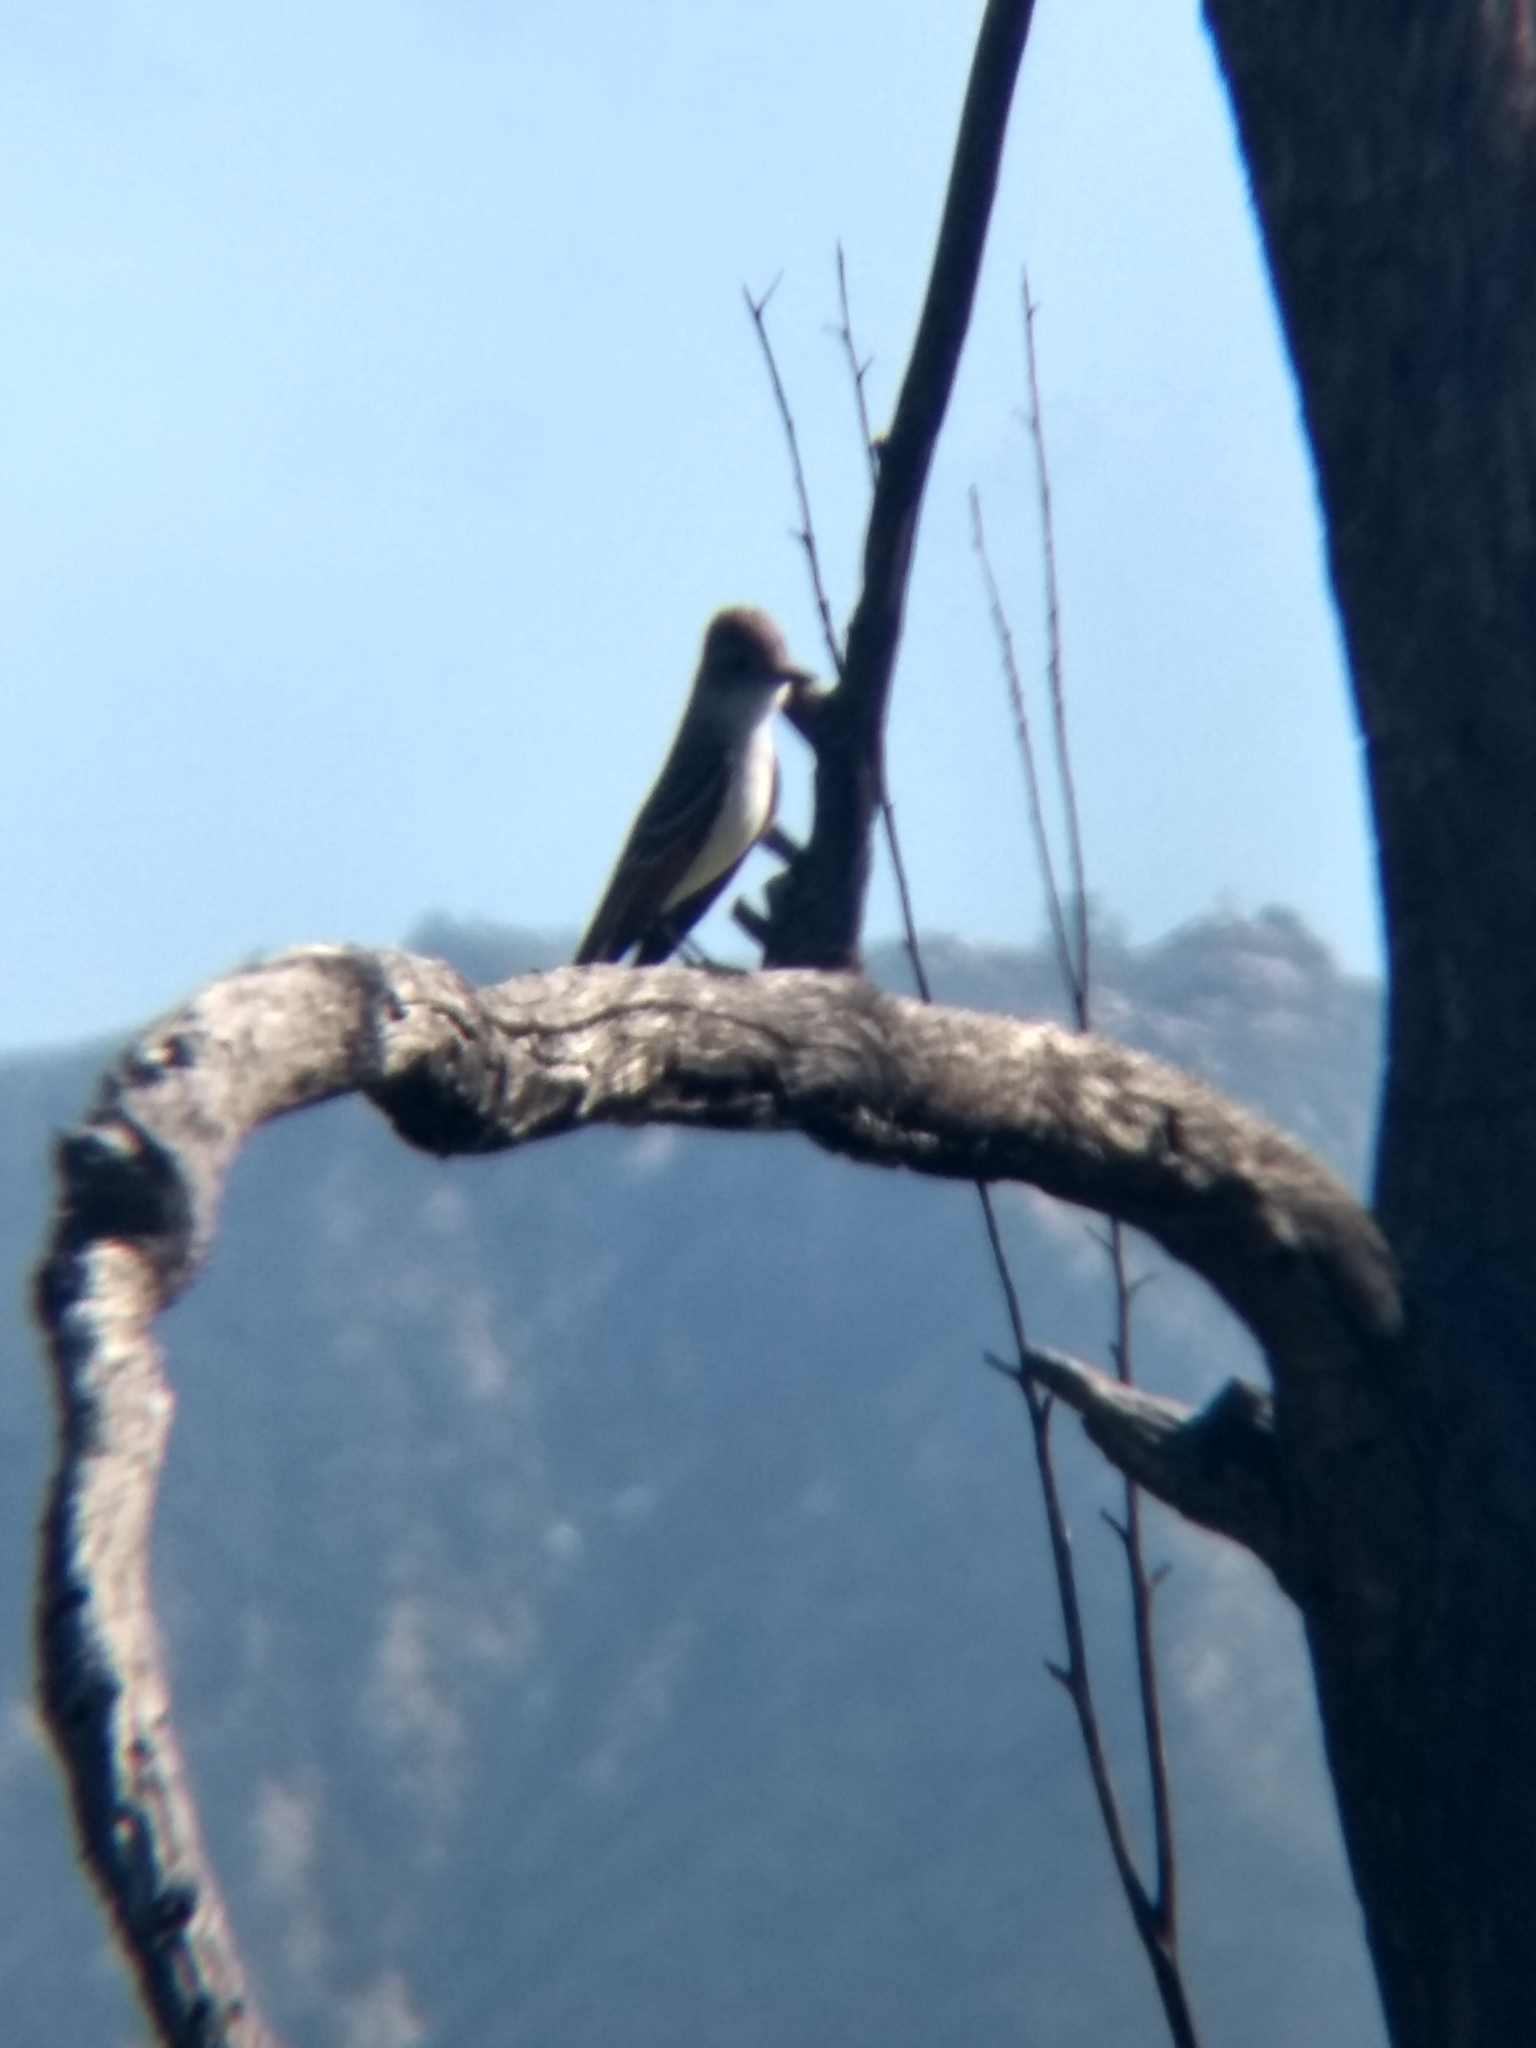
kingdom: Animalia
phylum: Chordata
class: Aves
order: Passeriformes
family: Tyrannidae
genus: Myiarchus
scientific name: Myiarchus cinerascens
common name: Ash-throated flycatcher
